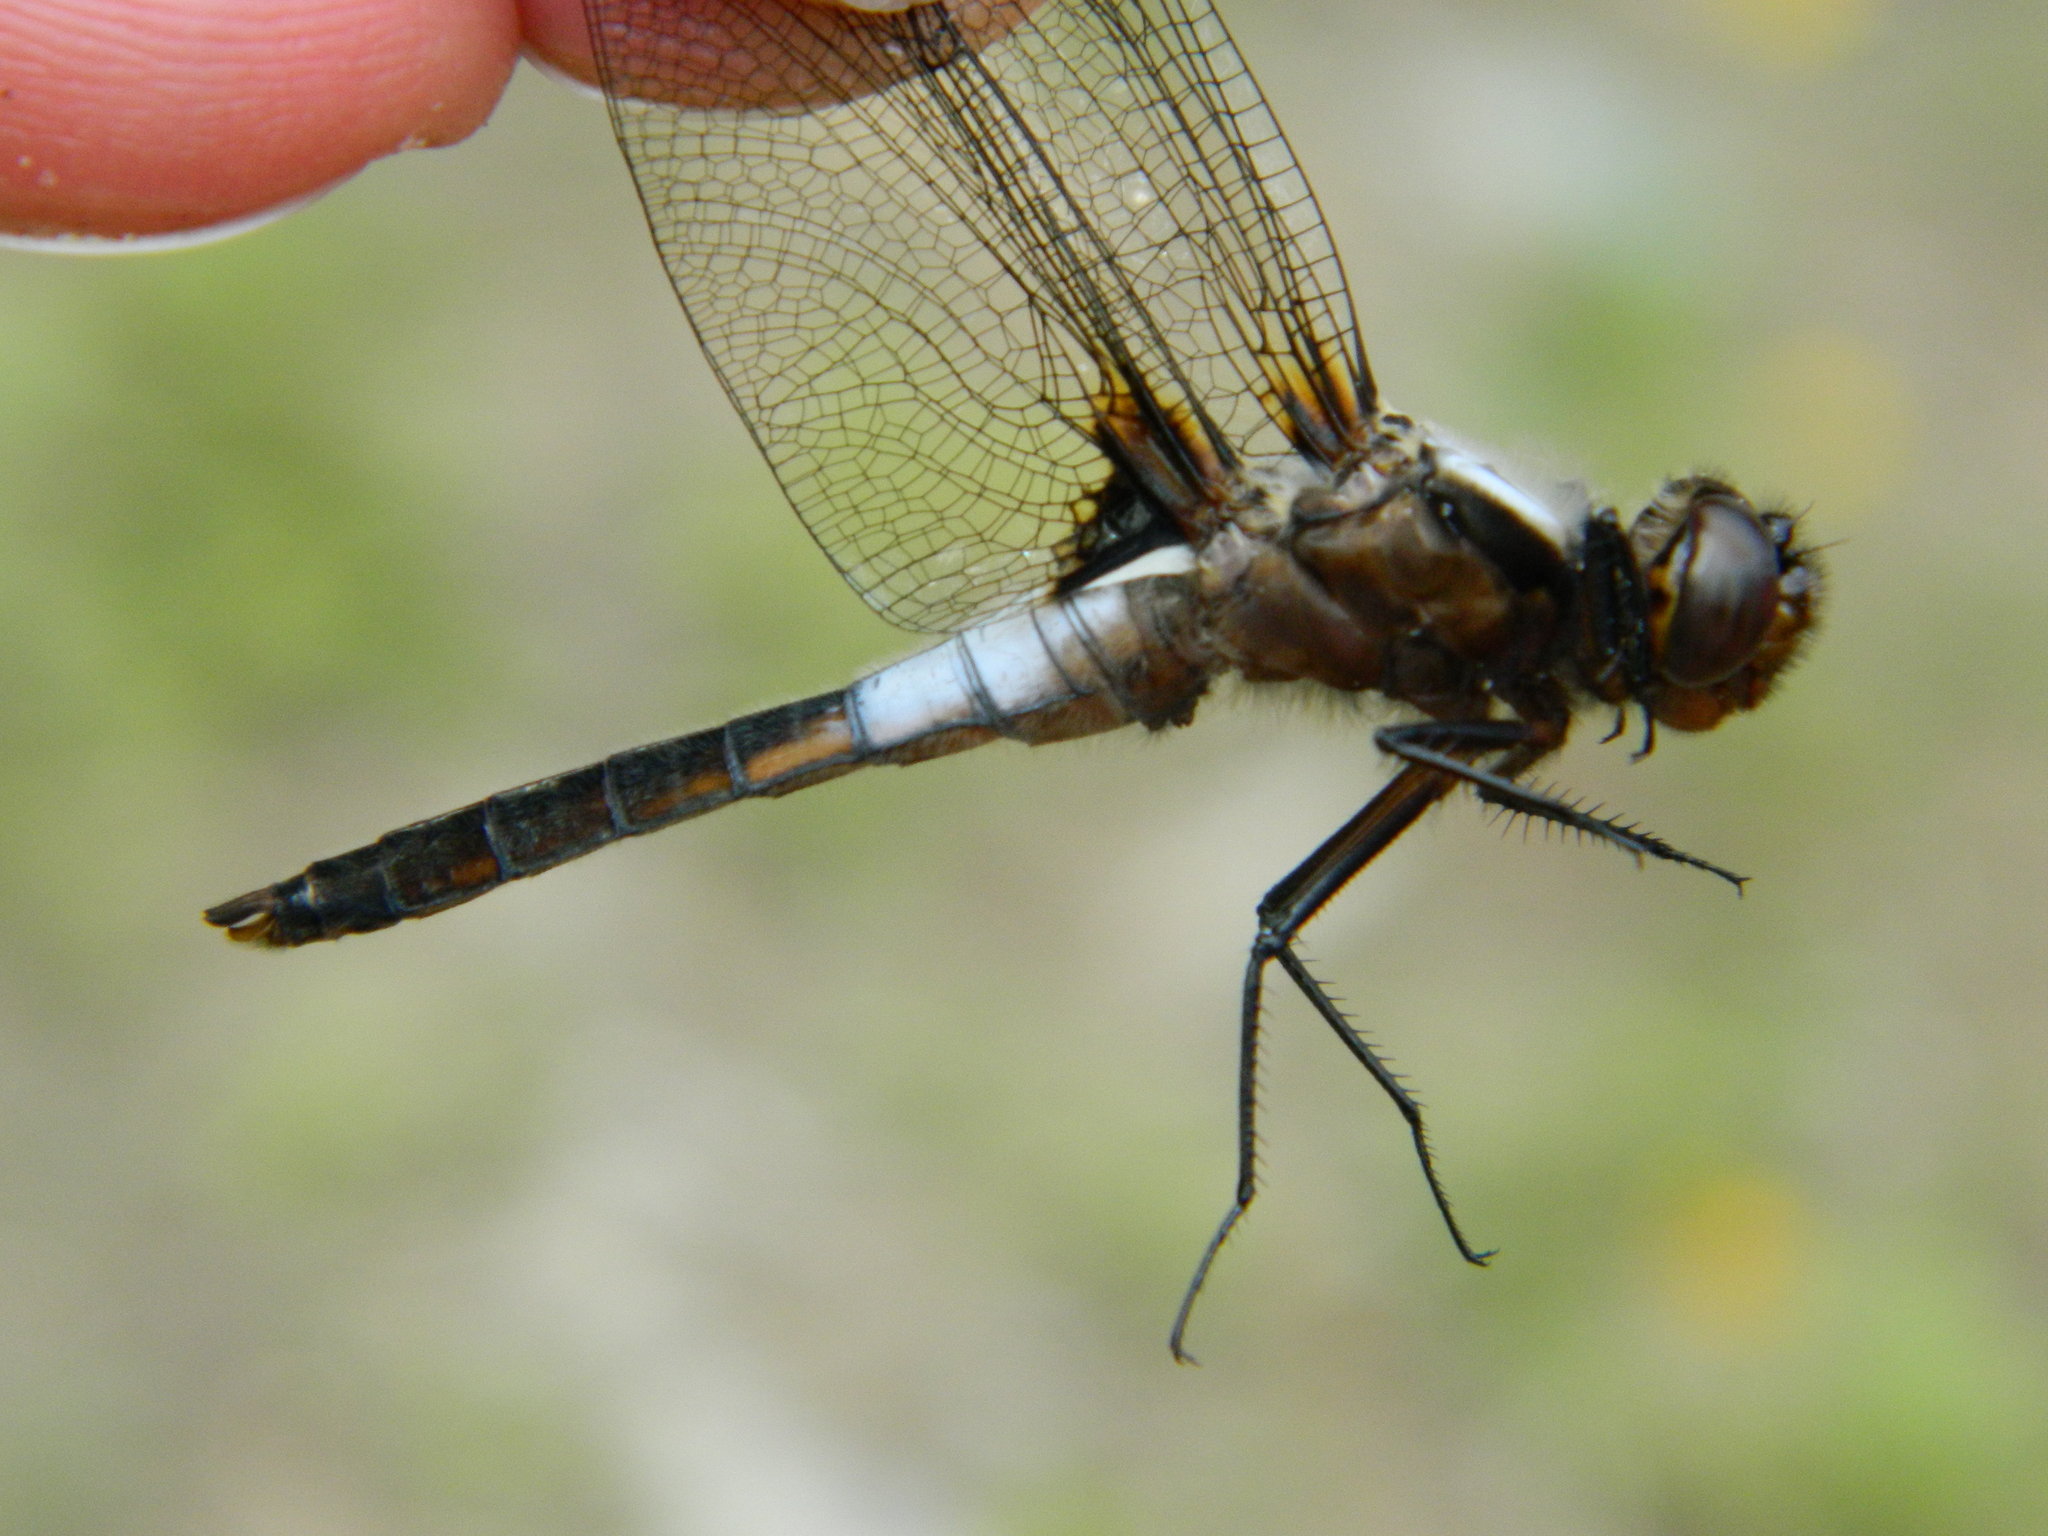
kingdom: Animalia
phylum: Arthropoda
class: Insecta
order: Odonata
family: Libellulidae
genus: Ladona
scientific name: Ladona julia
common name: Chalk-fronted corporal
